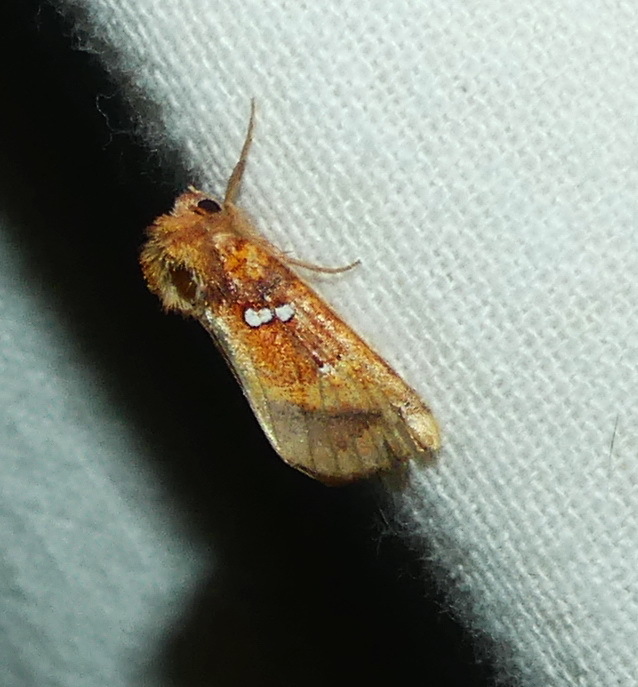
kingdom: Animalia
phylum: Arthropoda
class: Insecta
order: Lepidoptera
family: Noctuidae
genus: Papaipema
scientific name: Papaipema pterisii
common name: Bracken borer moth
